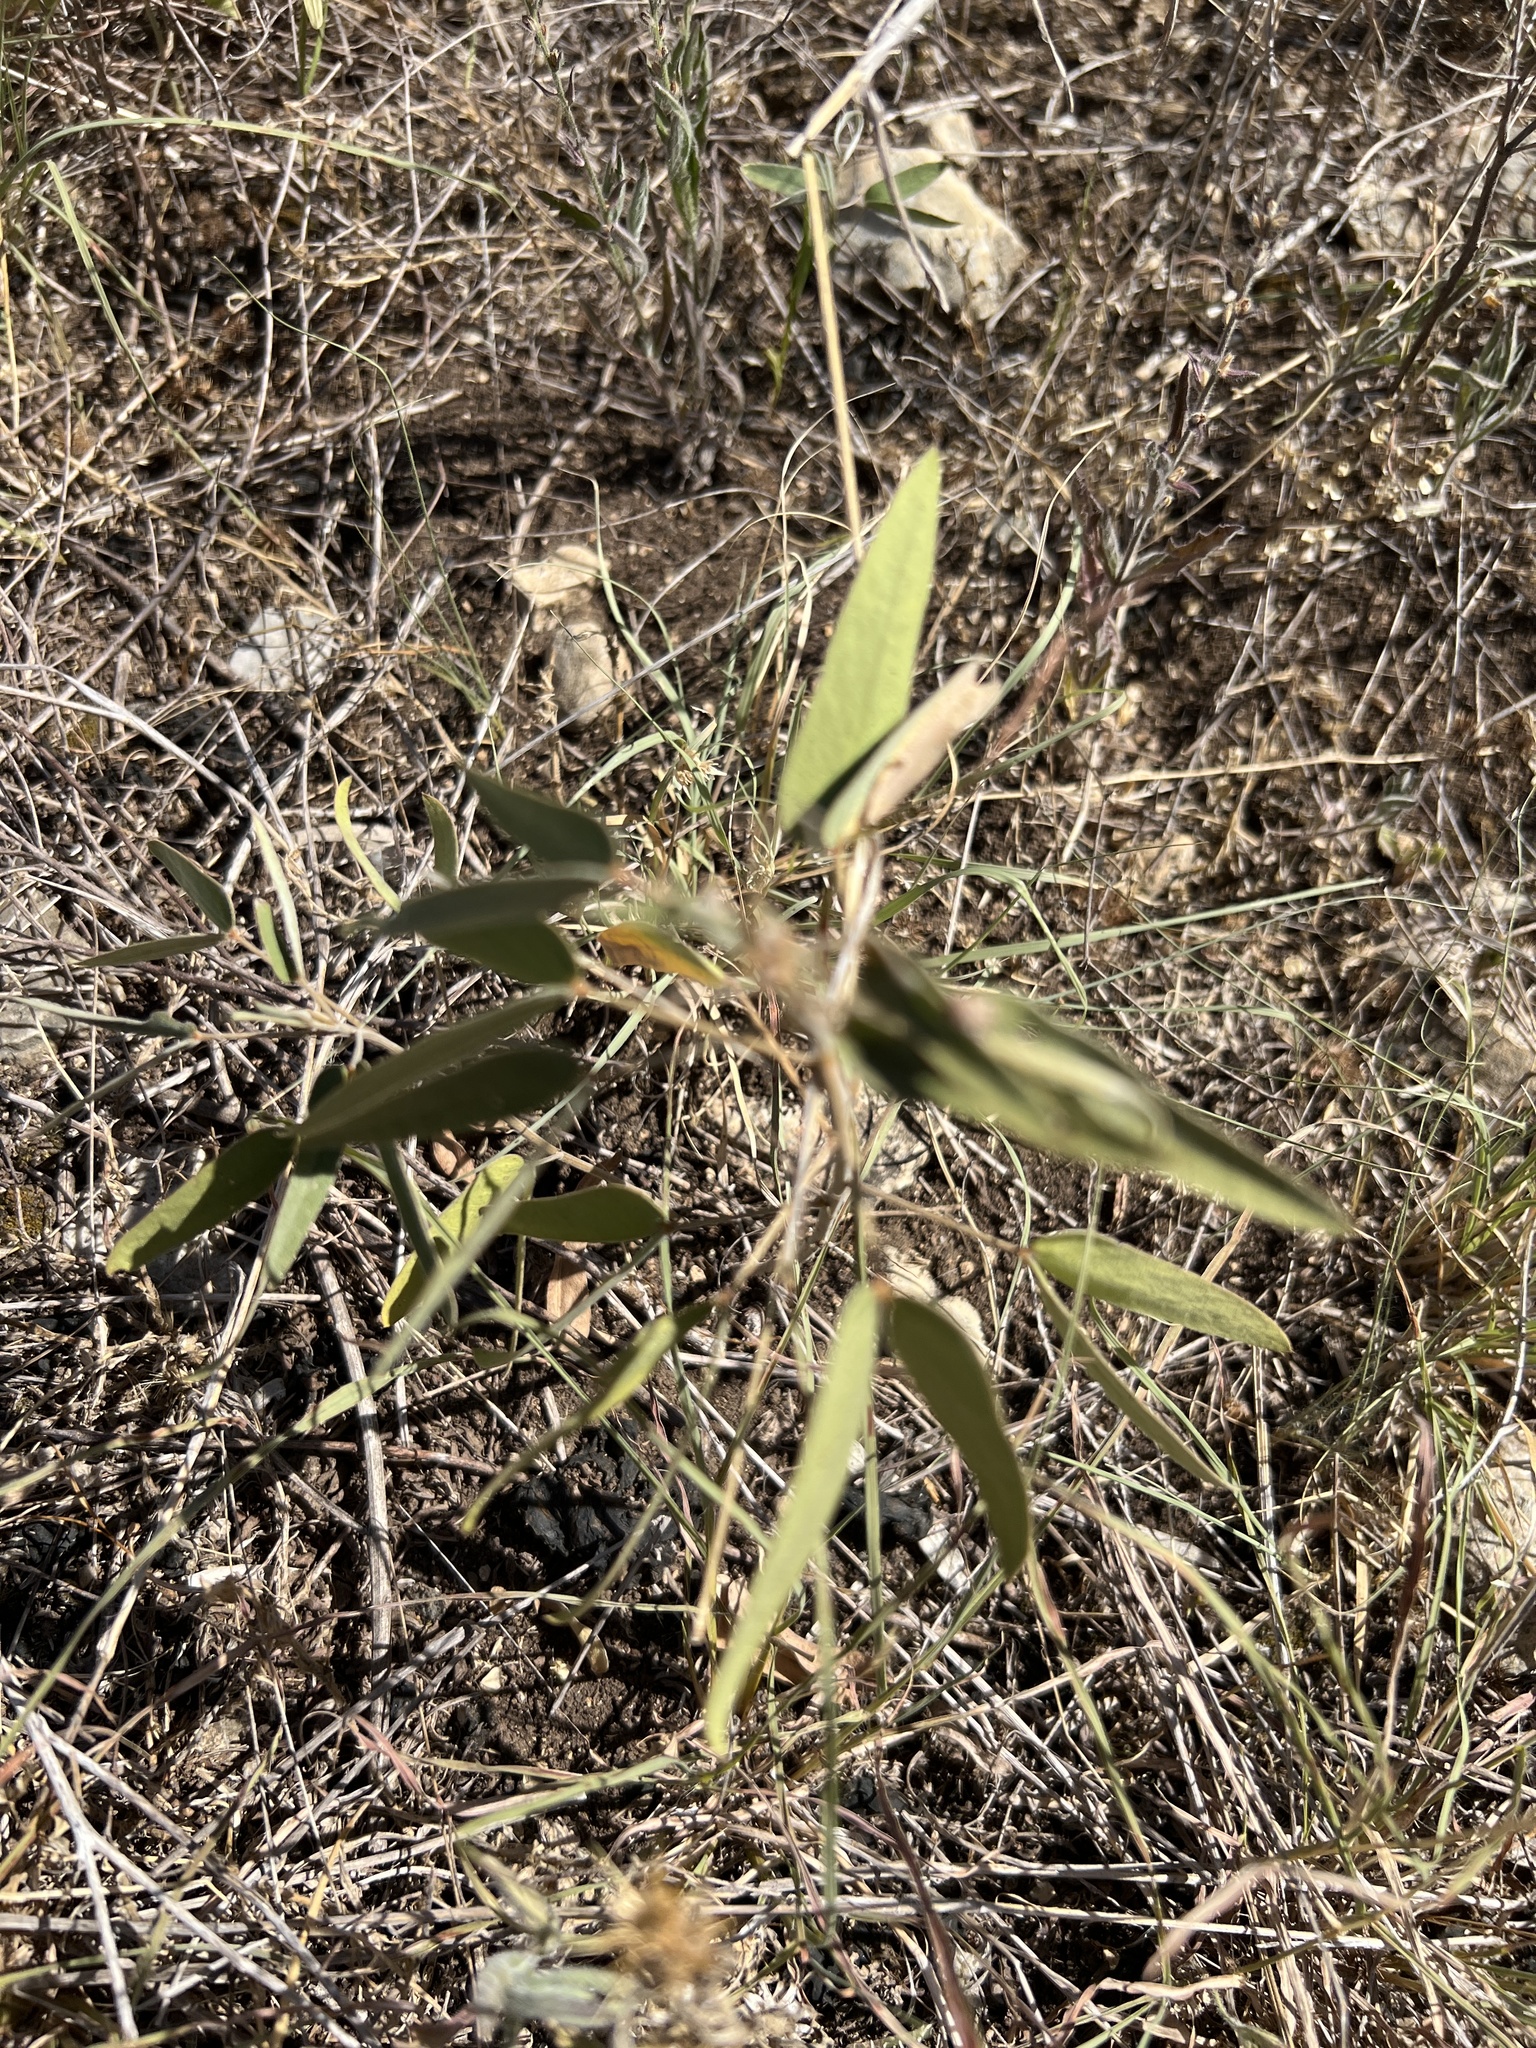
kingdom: Plantae
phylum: Tracheophyta
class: Magnoliopsida
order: Fabales
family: Fabaceae
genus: Senna
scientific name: Senna roemeriana
